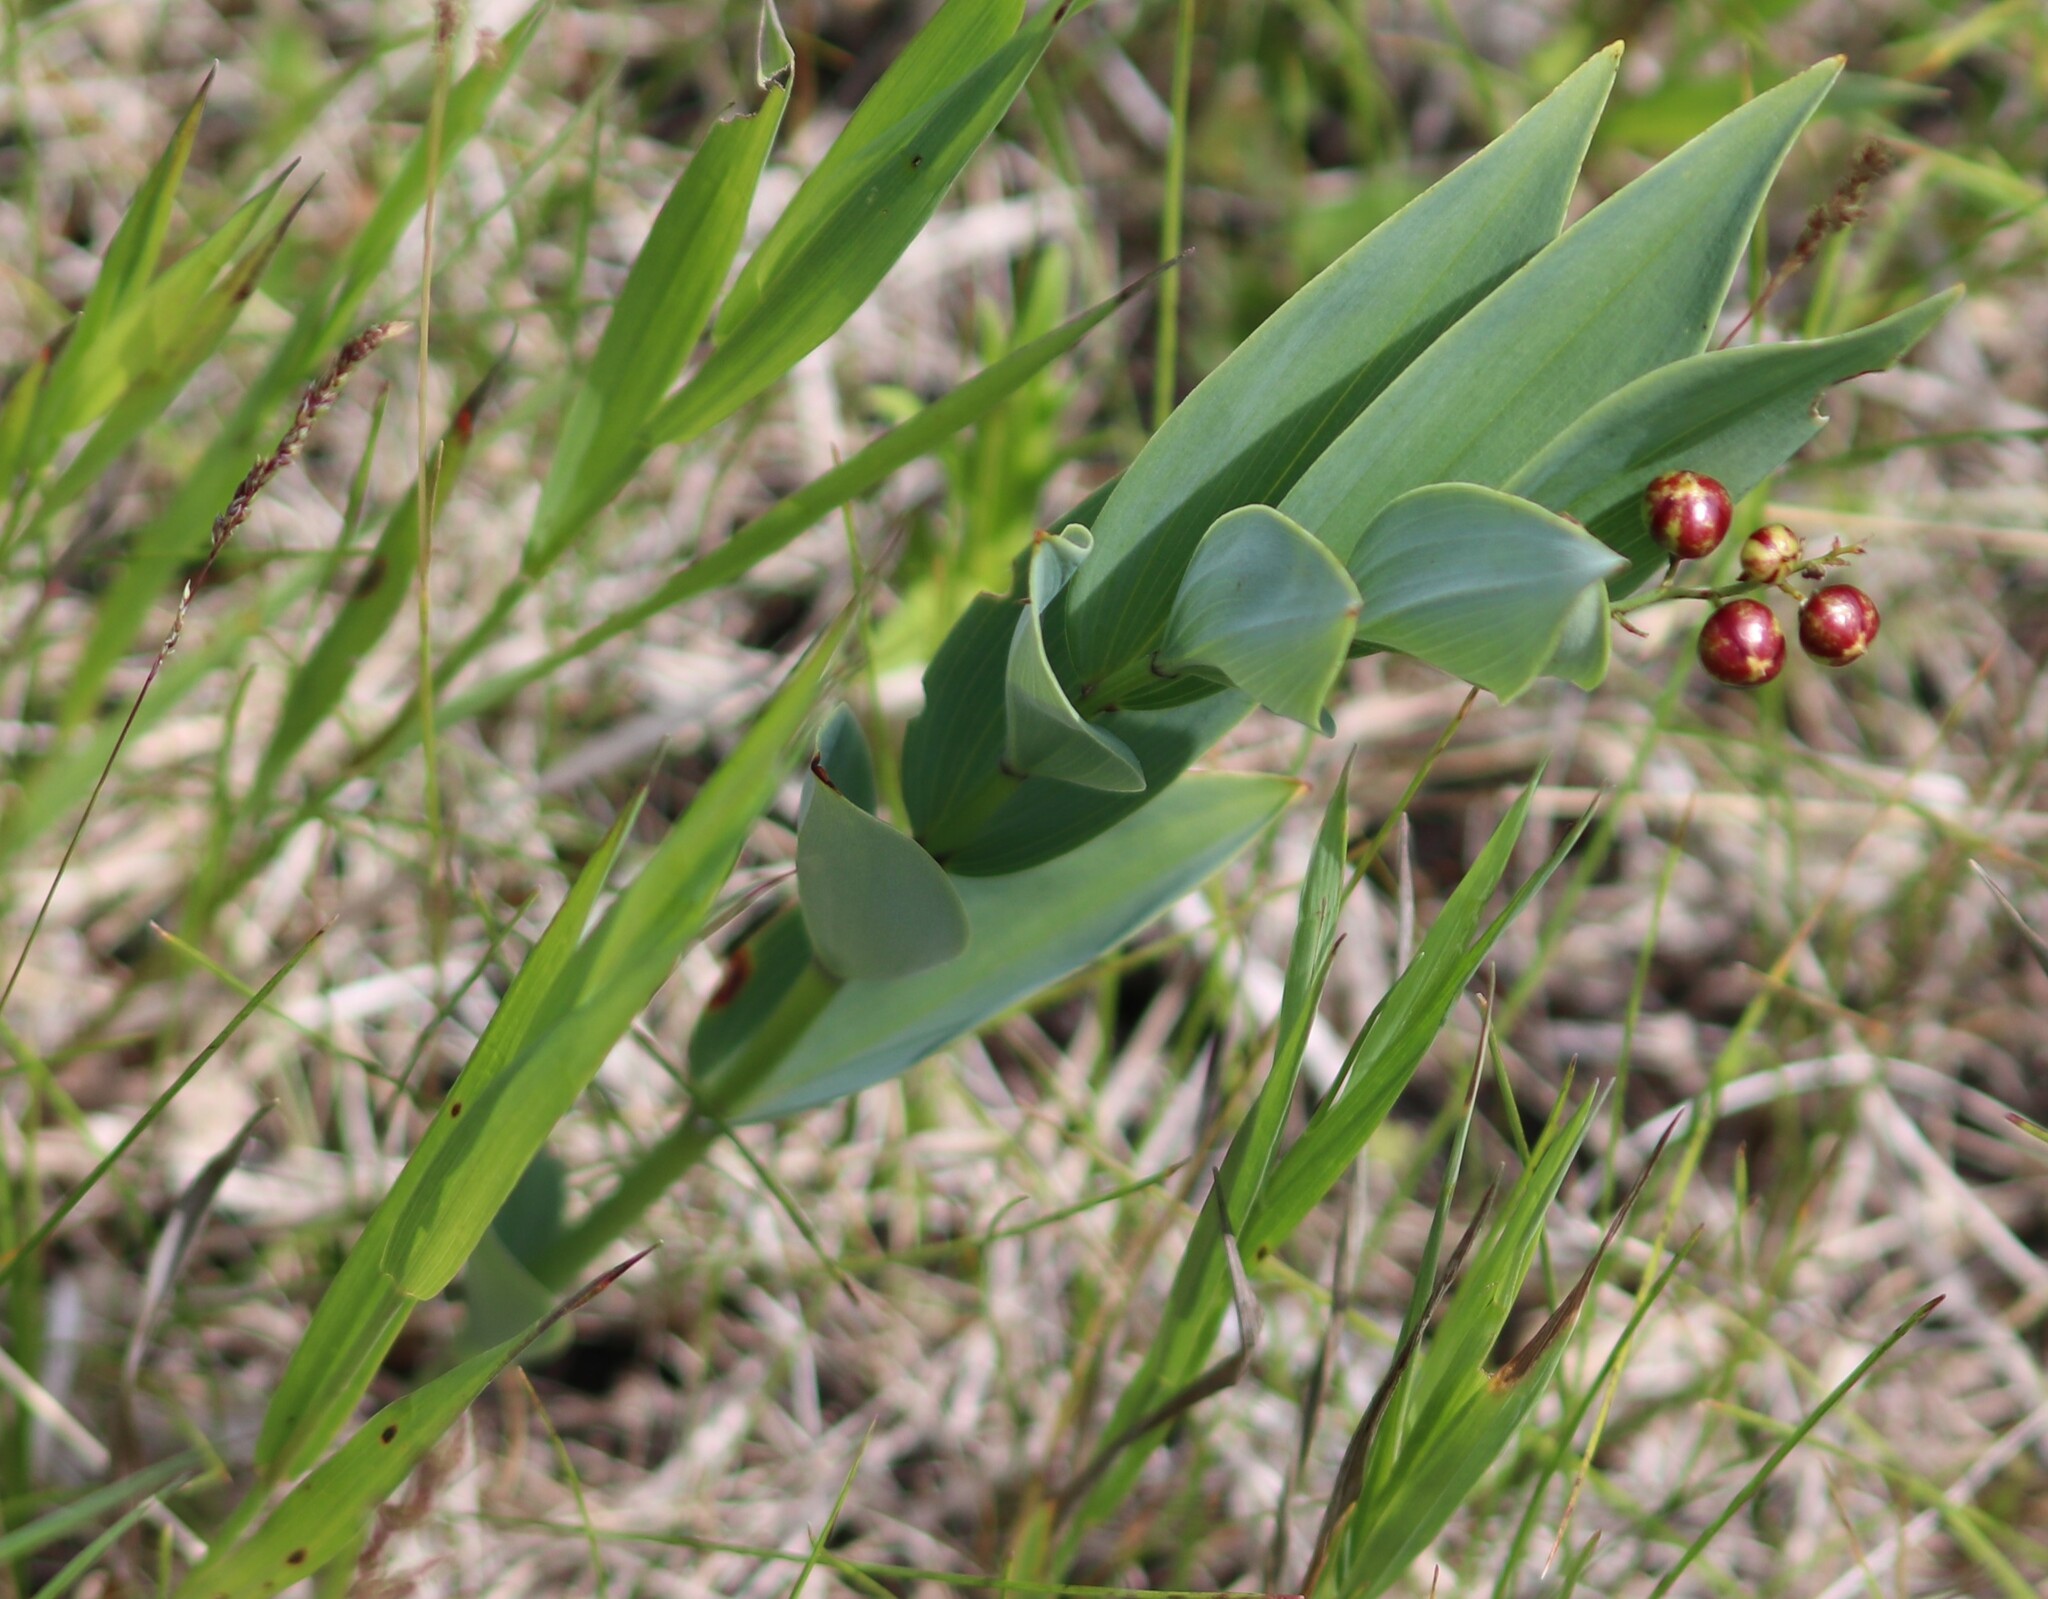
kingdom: Plantae
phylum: Tracheophyta
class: Liliopsida
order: Asparagales
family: Asparagaceae
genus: Maianthemum
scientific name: Maianthemum stellatum
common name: Little false solomon's seal
